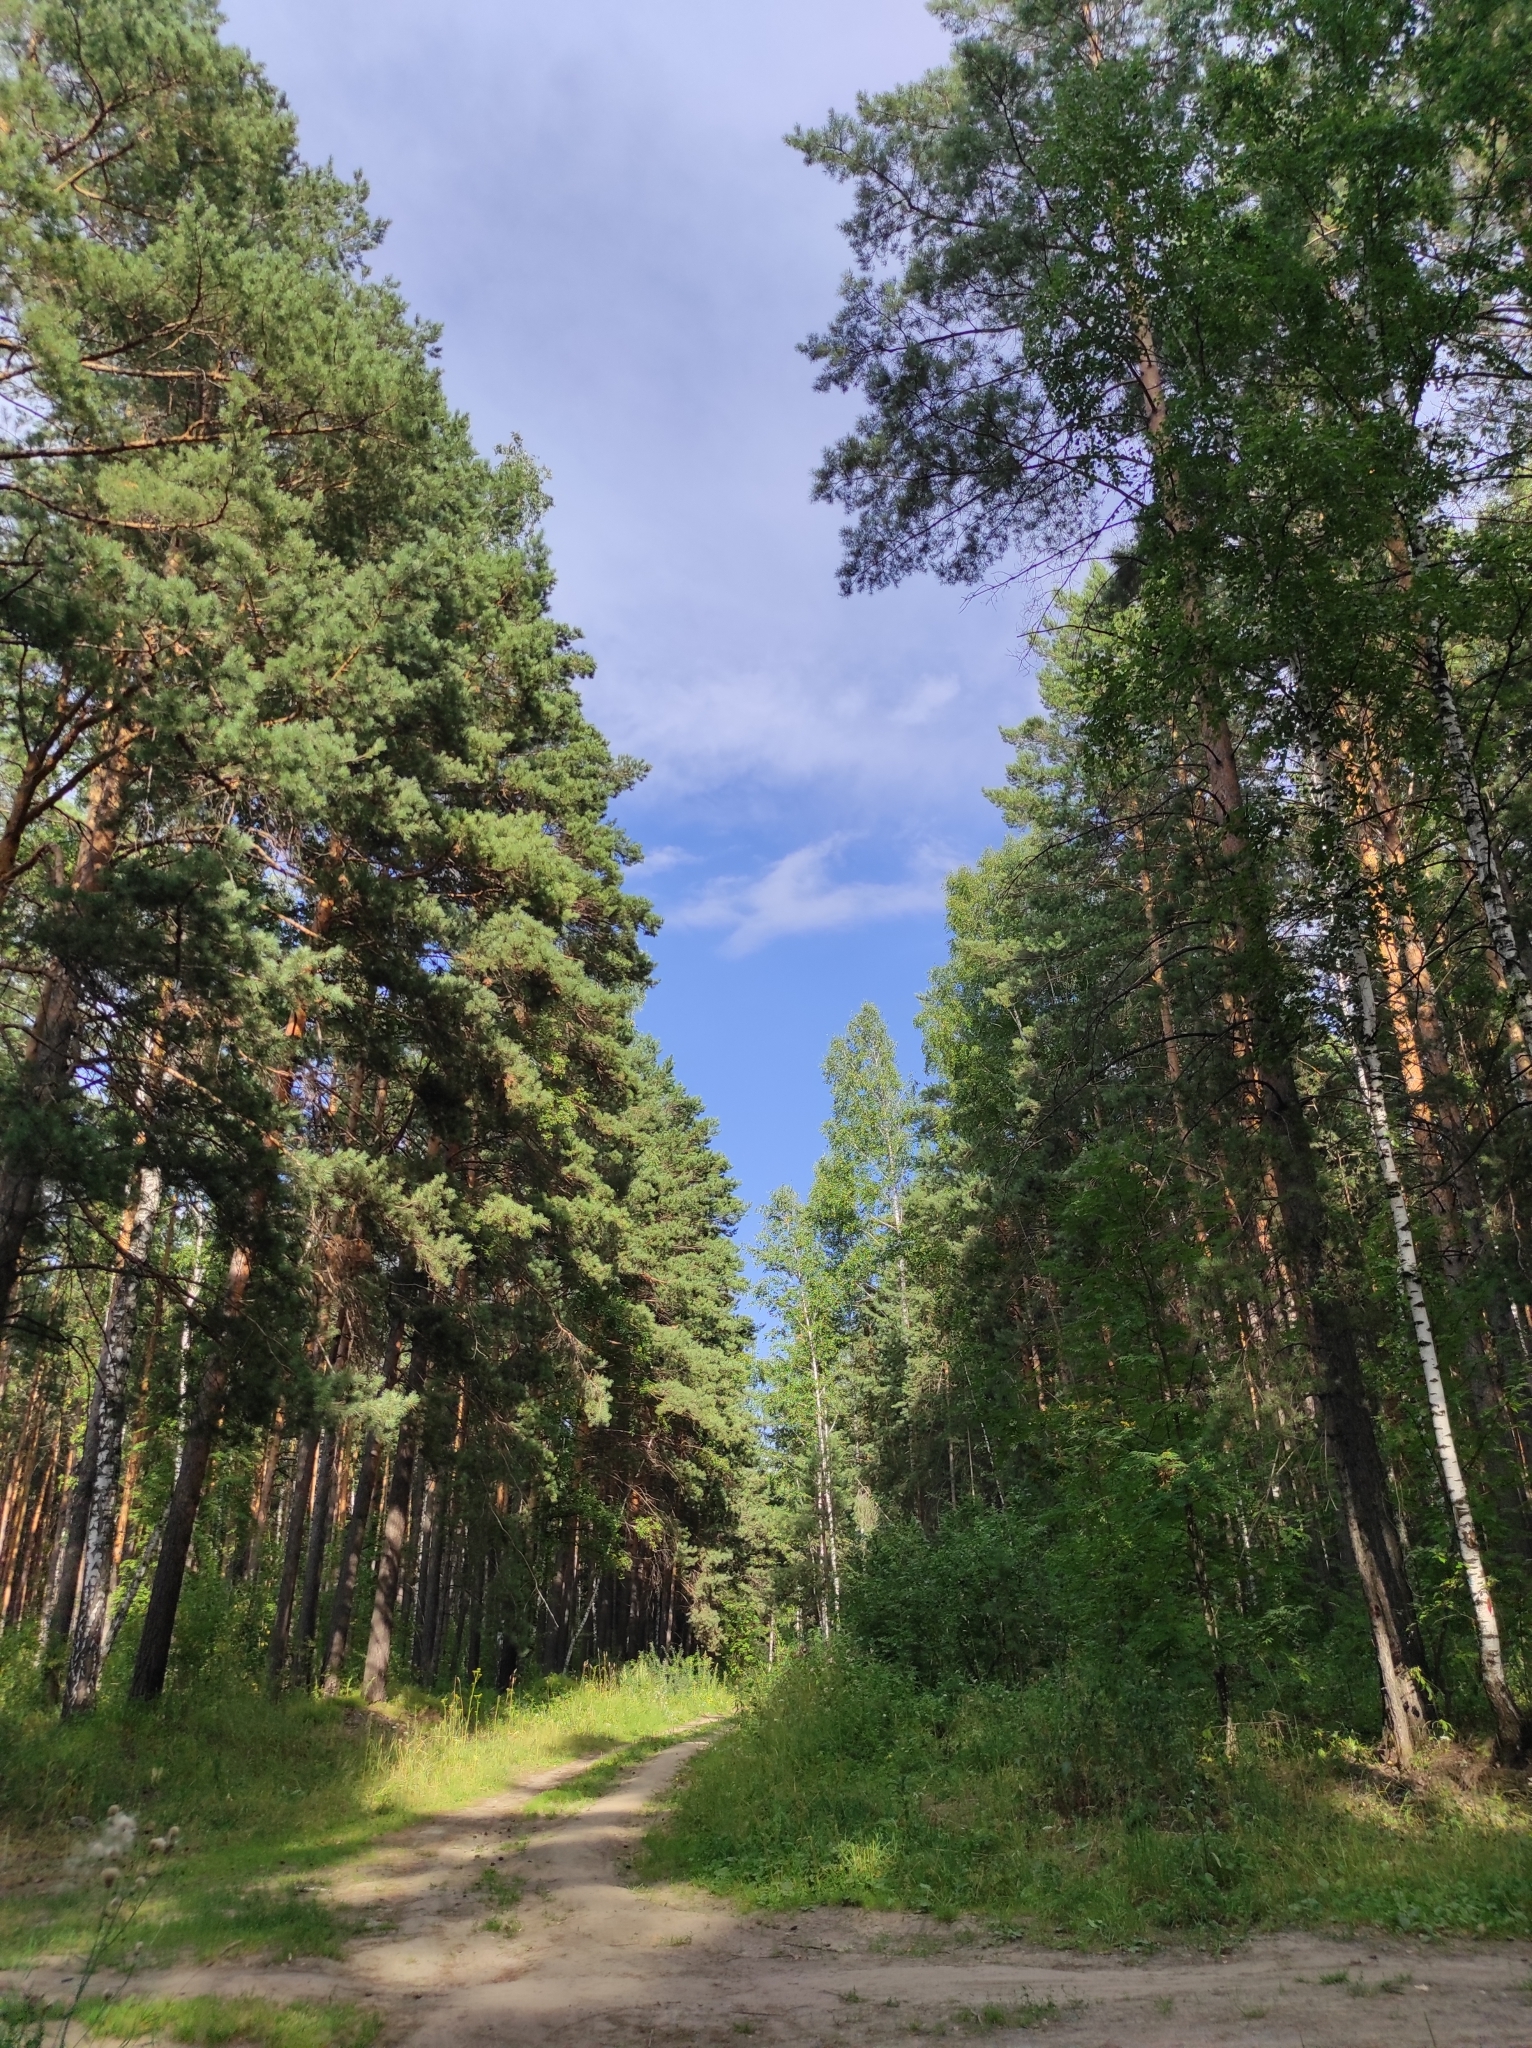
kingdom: Plantae
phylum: Tracheophyta
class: Pinopsida
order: Pinales
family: Pinaceae
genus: Pinus
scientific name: Pinus sylvestris
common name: Scots pine
